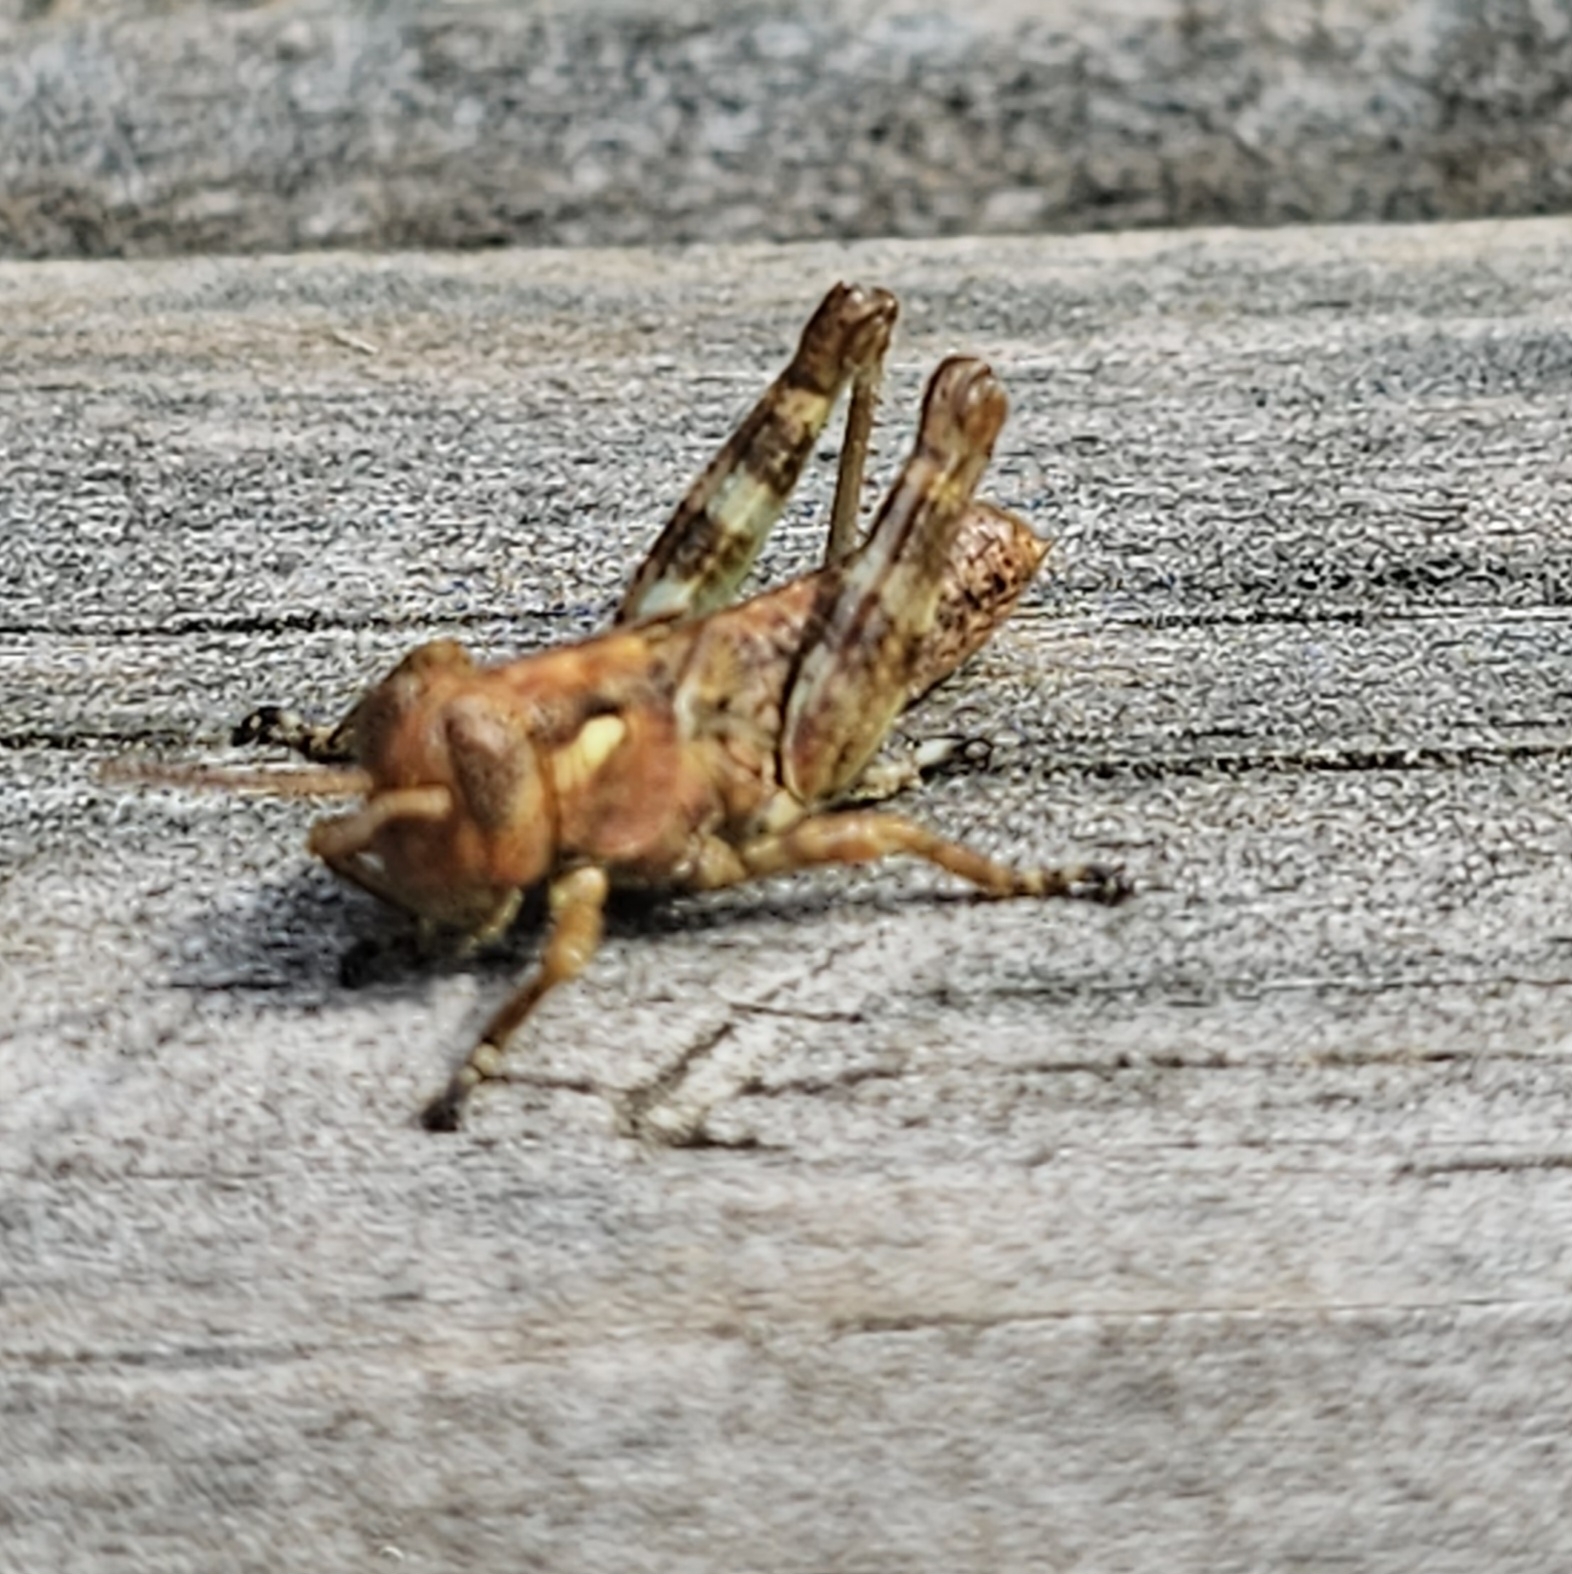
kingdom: Animalia
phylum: Arthropoda
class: Insecta
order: Orthoptera
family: Acrididae
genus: Melanoplus
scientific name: Melanoplus punctulatus
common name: Pine-tree spur-throat grasshopper
